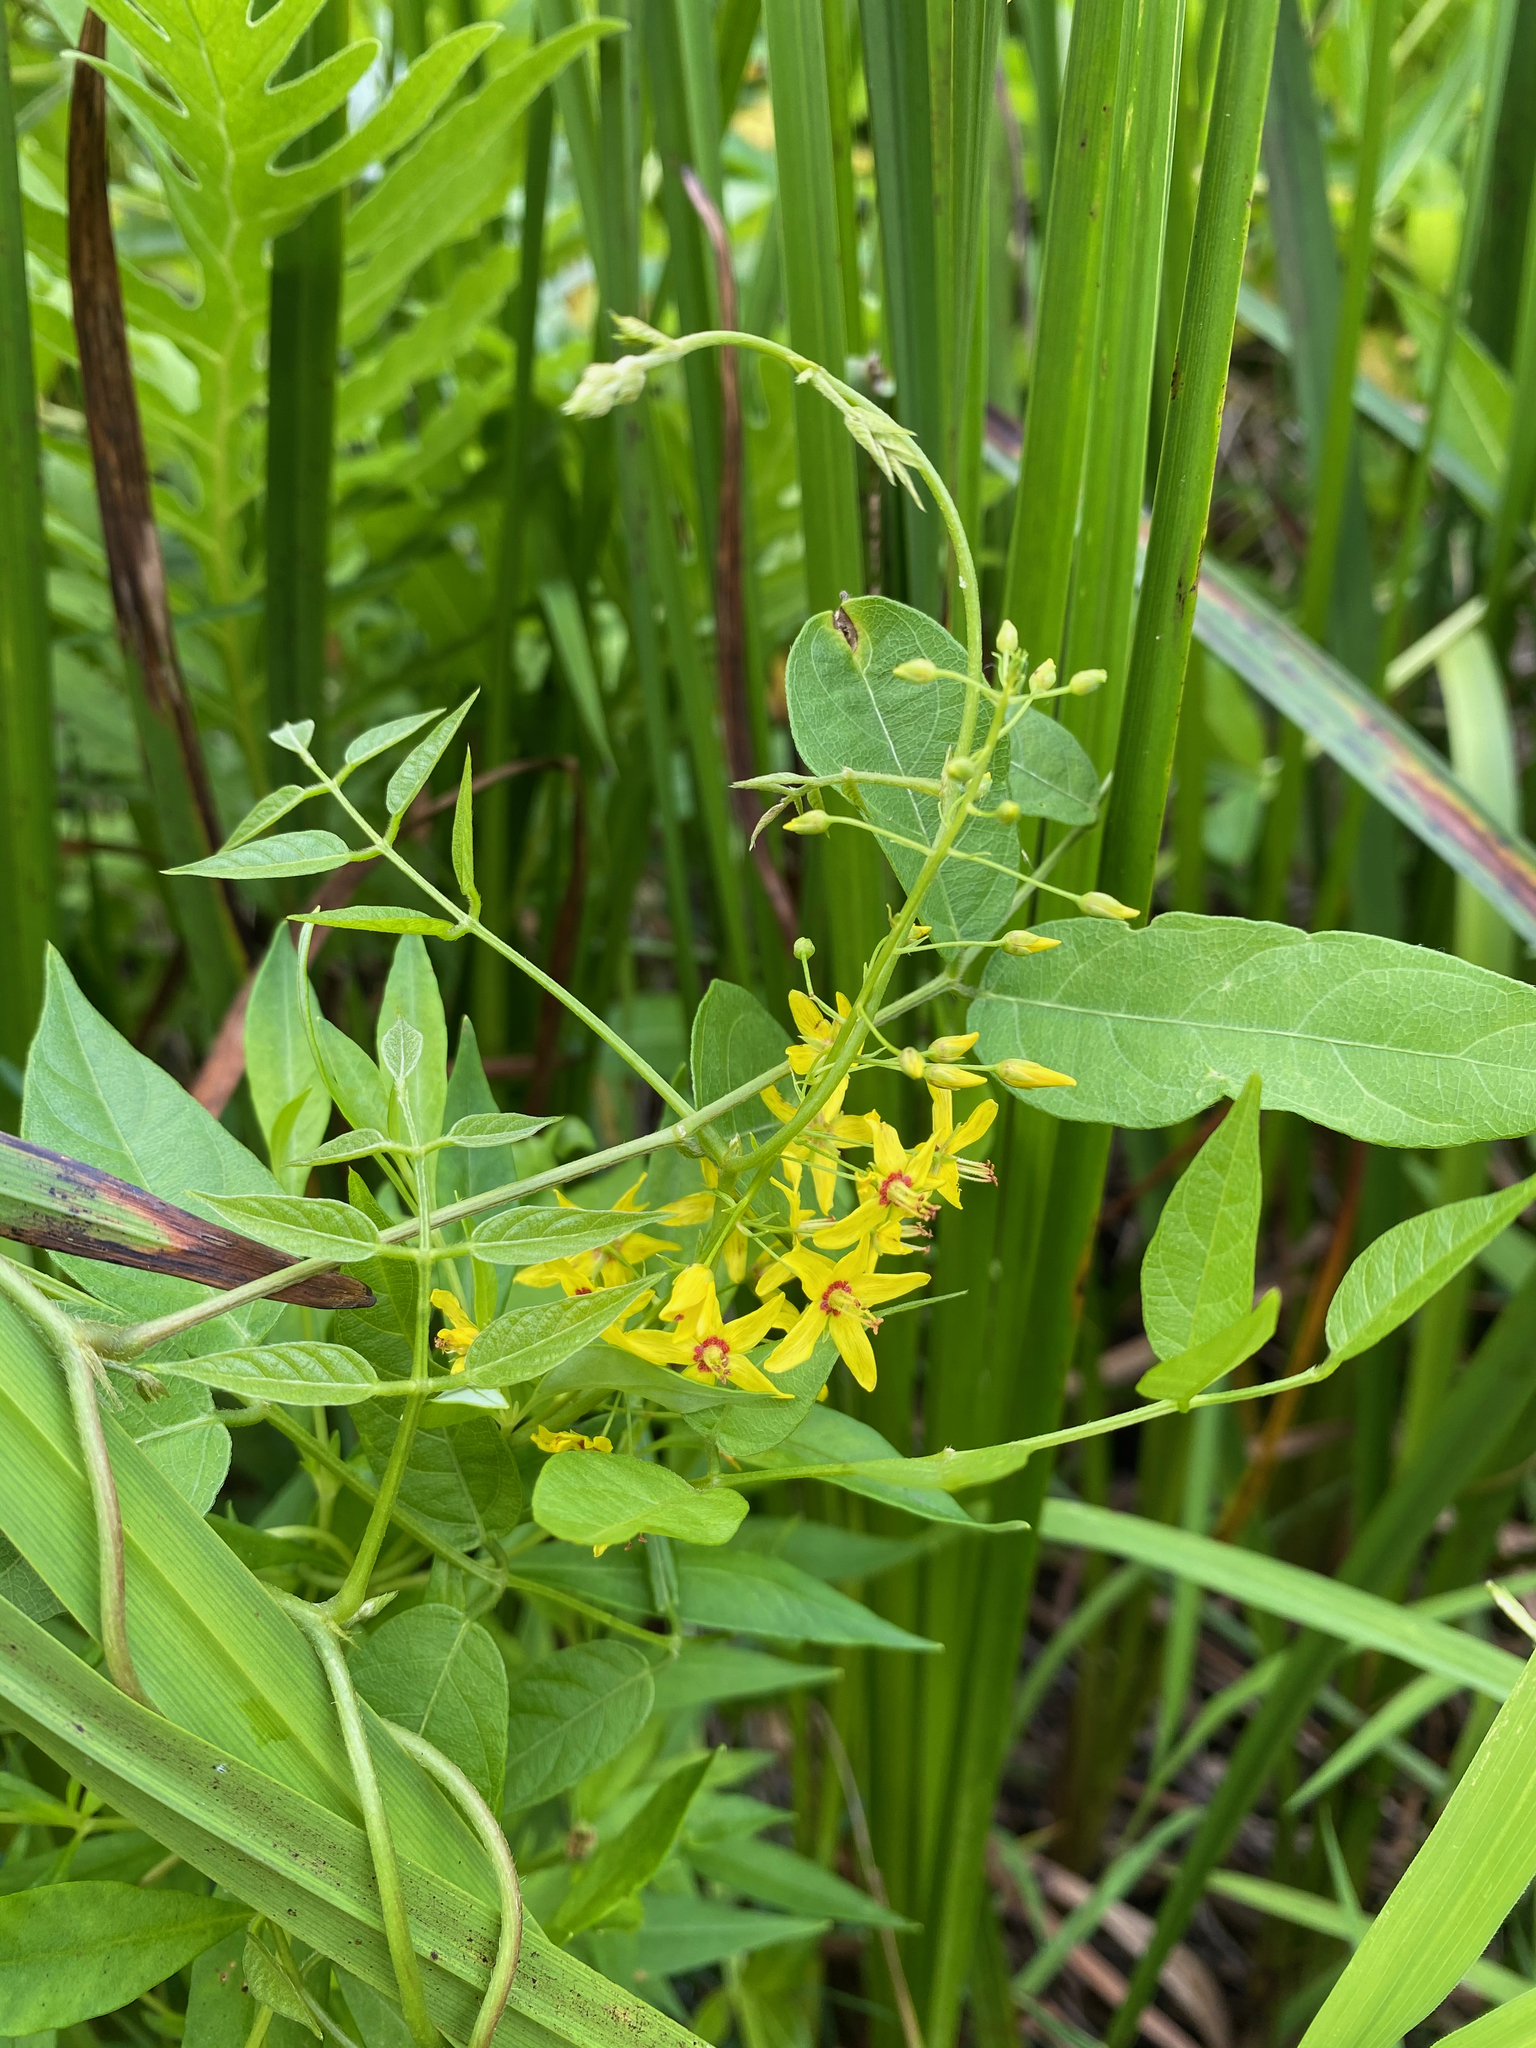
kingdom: Plantae
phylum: Tracheophyta
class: Magnoliopsida
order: Ericales
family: Primulaceae
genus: Lysimachia
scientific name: Lysimachia terrestris
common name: Lake loosestrife
